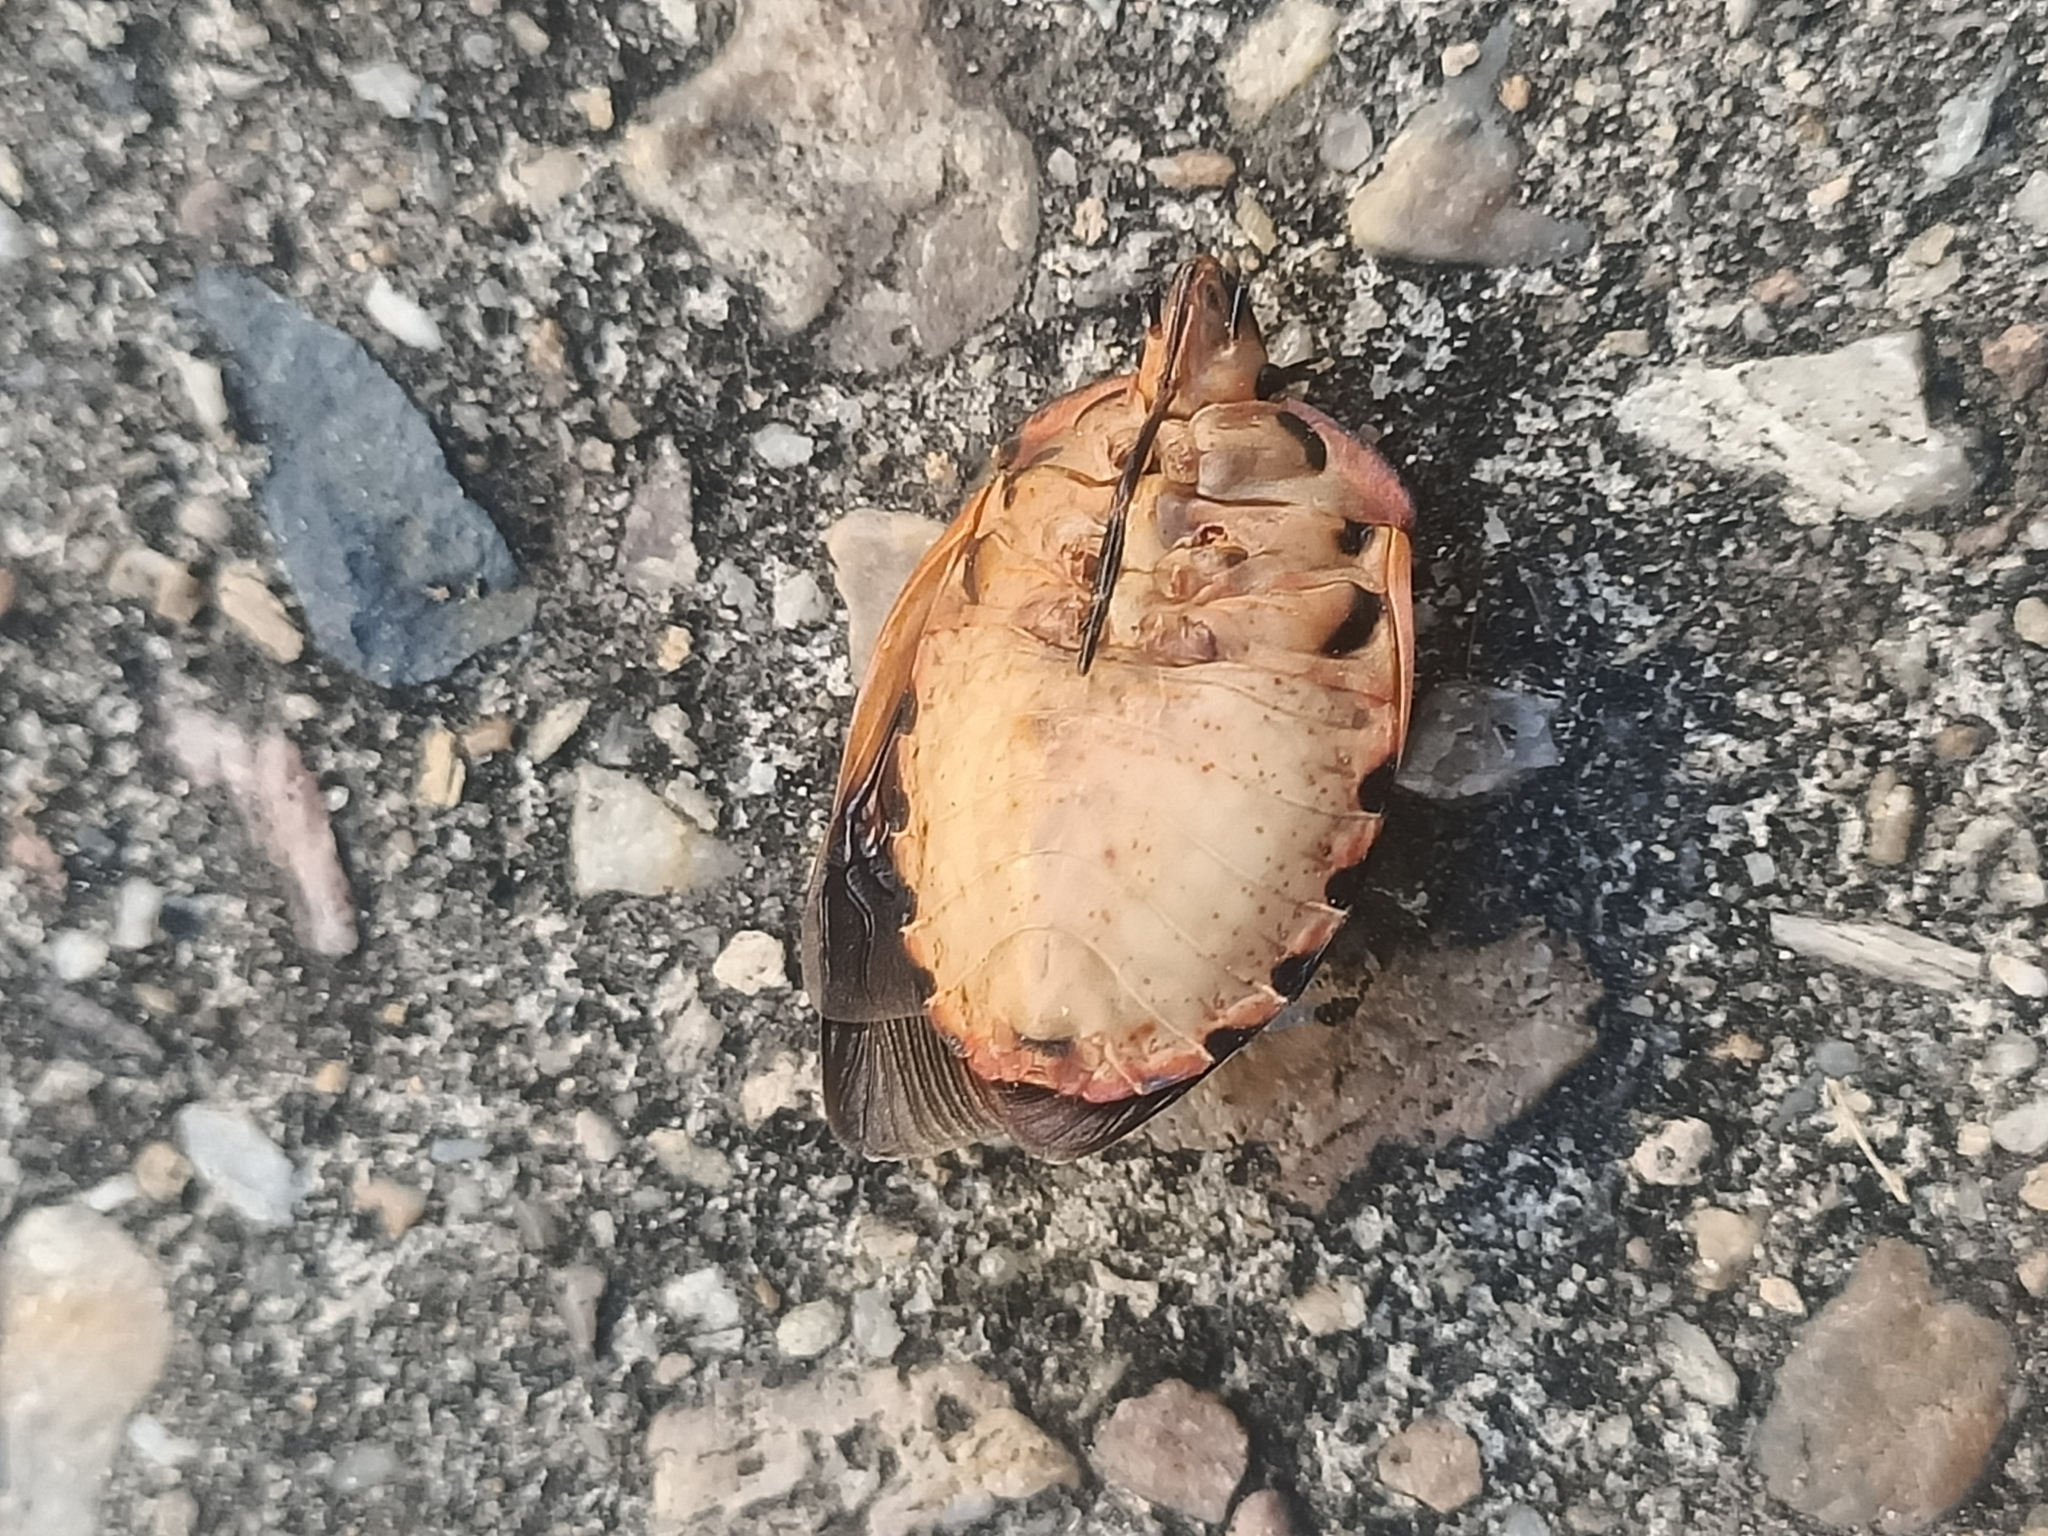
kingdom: Animalia
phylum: Arthropoda
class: Insecta
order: Hemiptera
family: Scutelleridae
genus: Tectocoris
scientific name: Tectocoris diophthalmus
